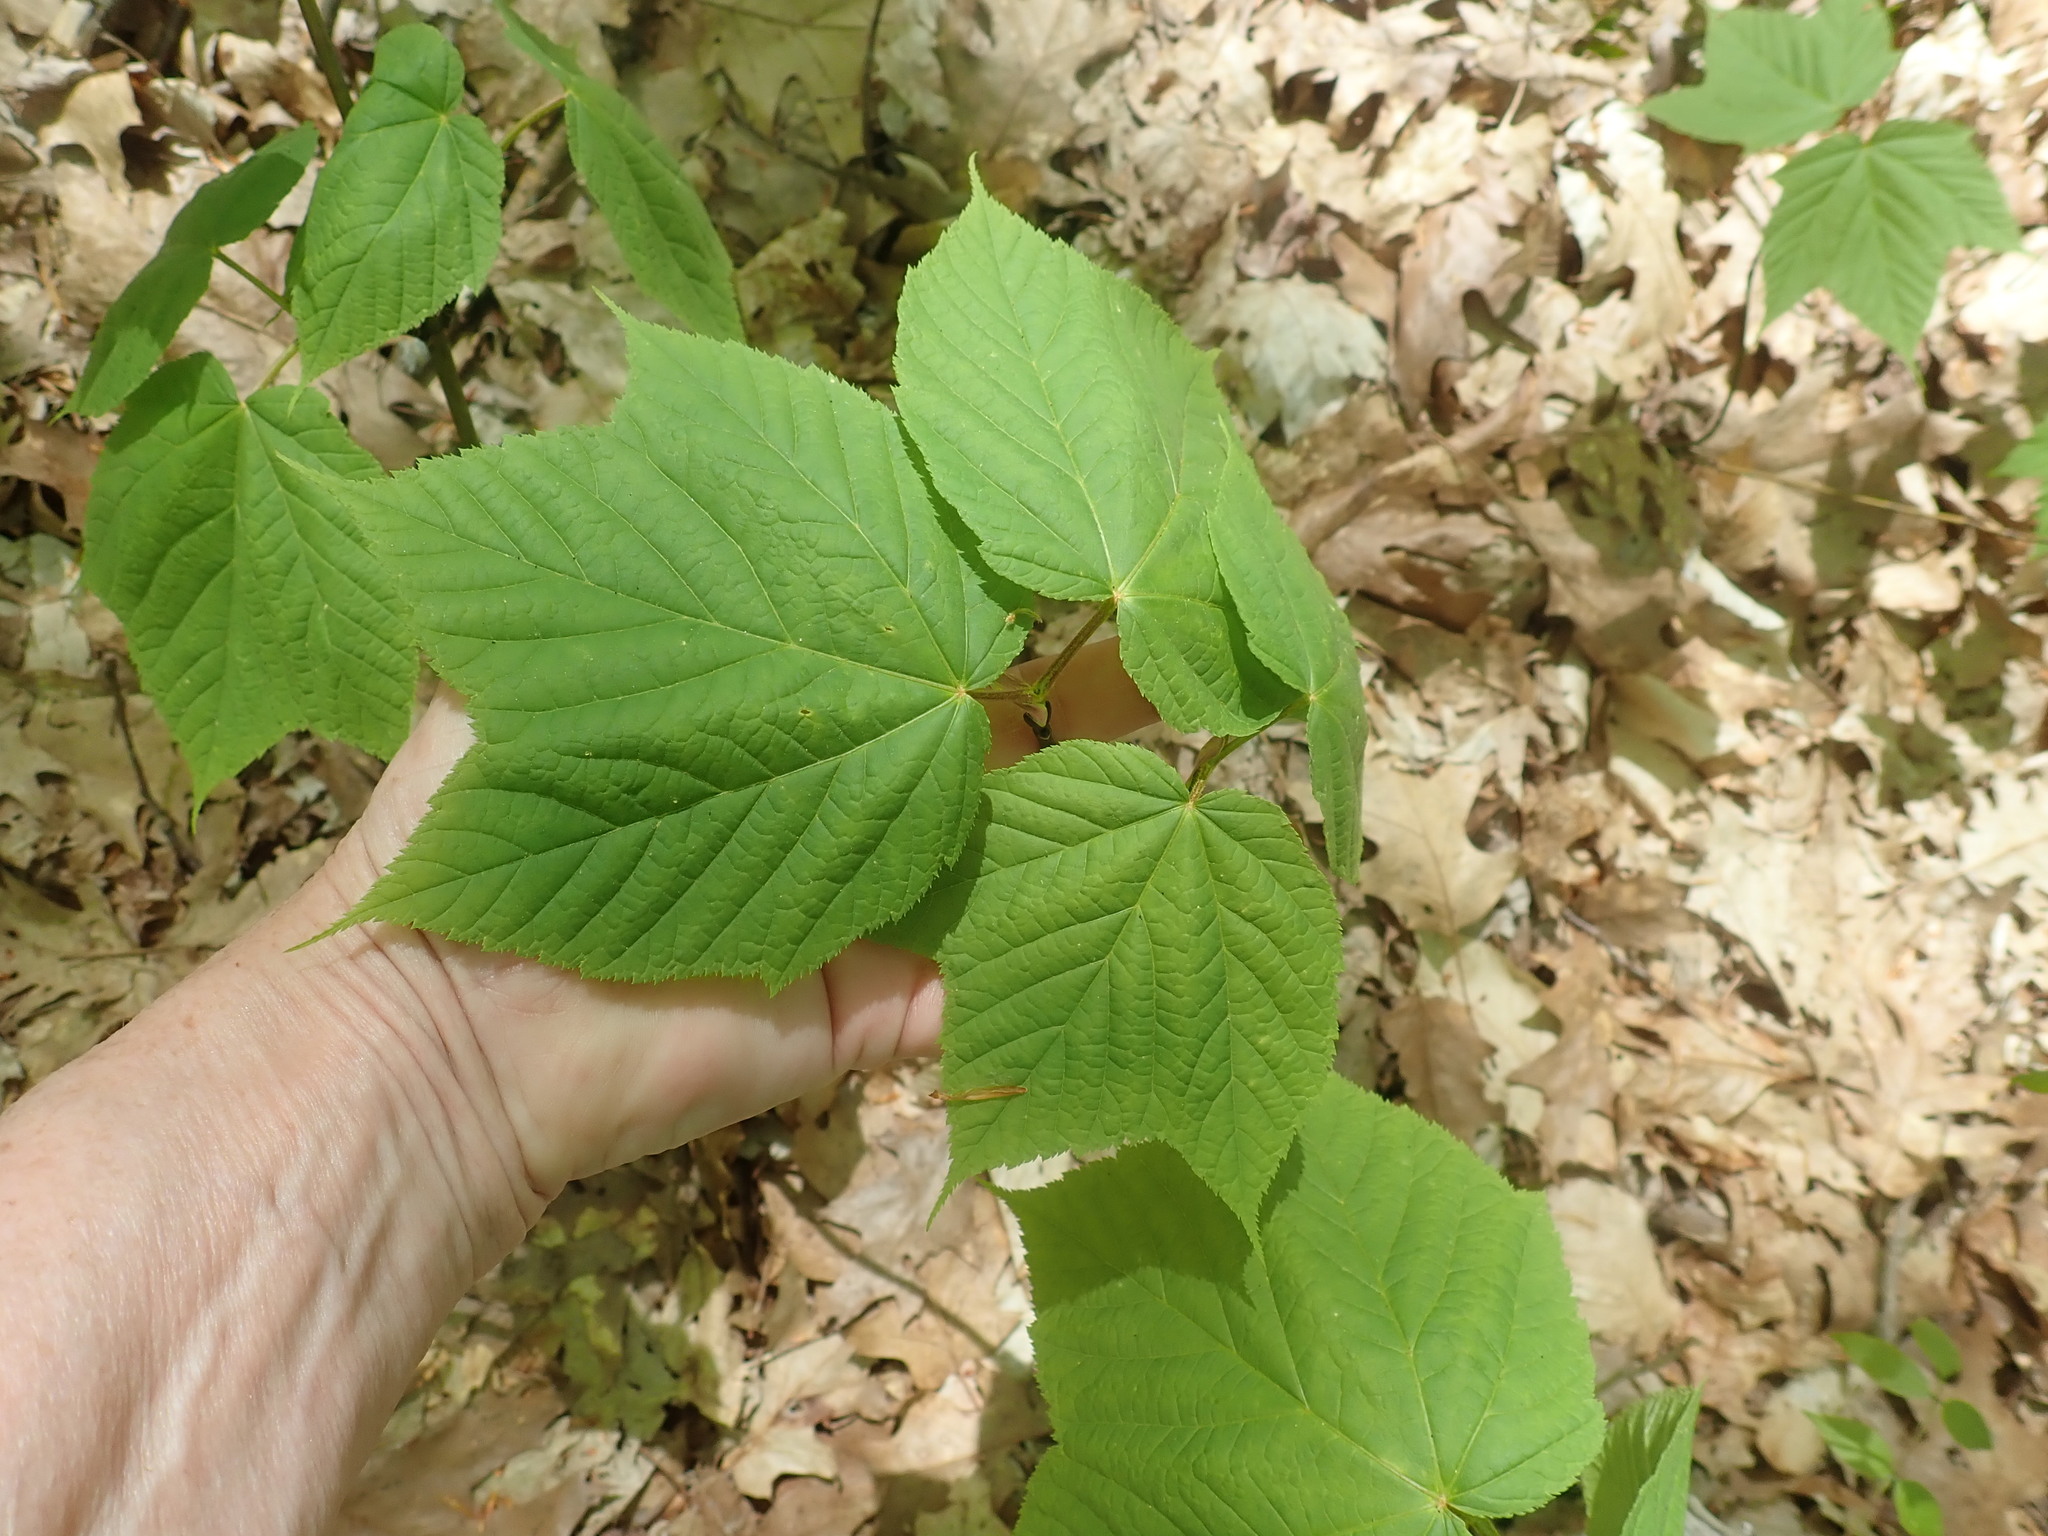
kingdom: Plantae
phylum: Tracheophyta
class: Magnoliopsida
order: Sapindales
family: Sapindaceae
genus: Acer
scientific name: Acer pensylvanicum
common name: Moosewood
